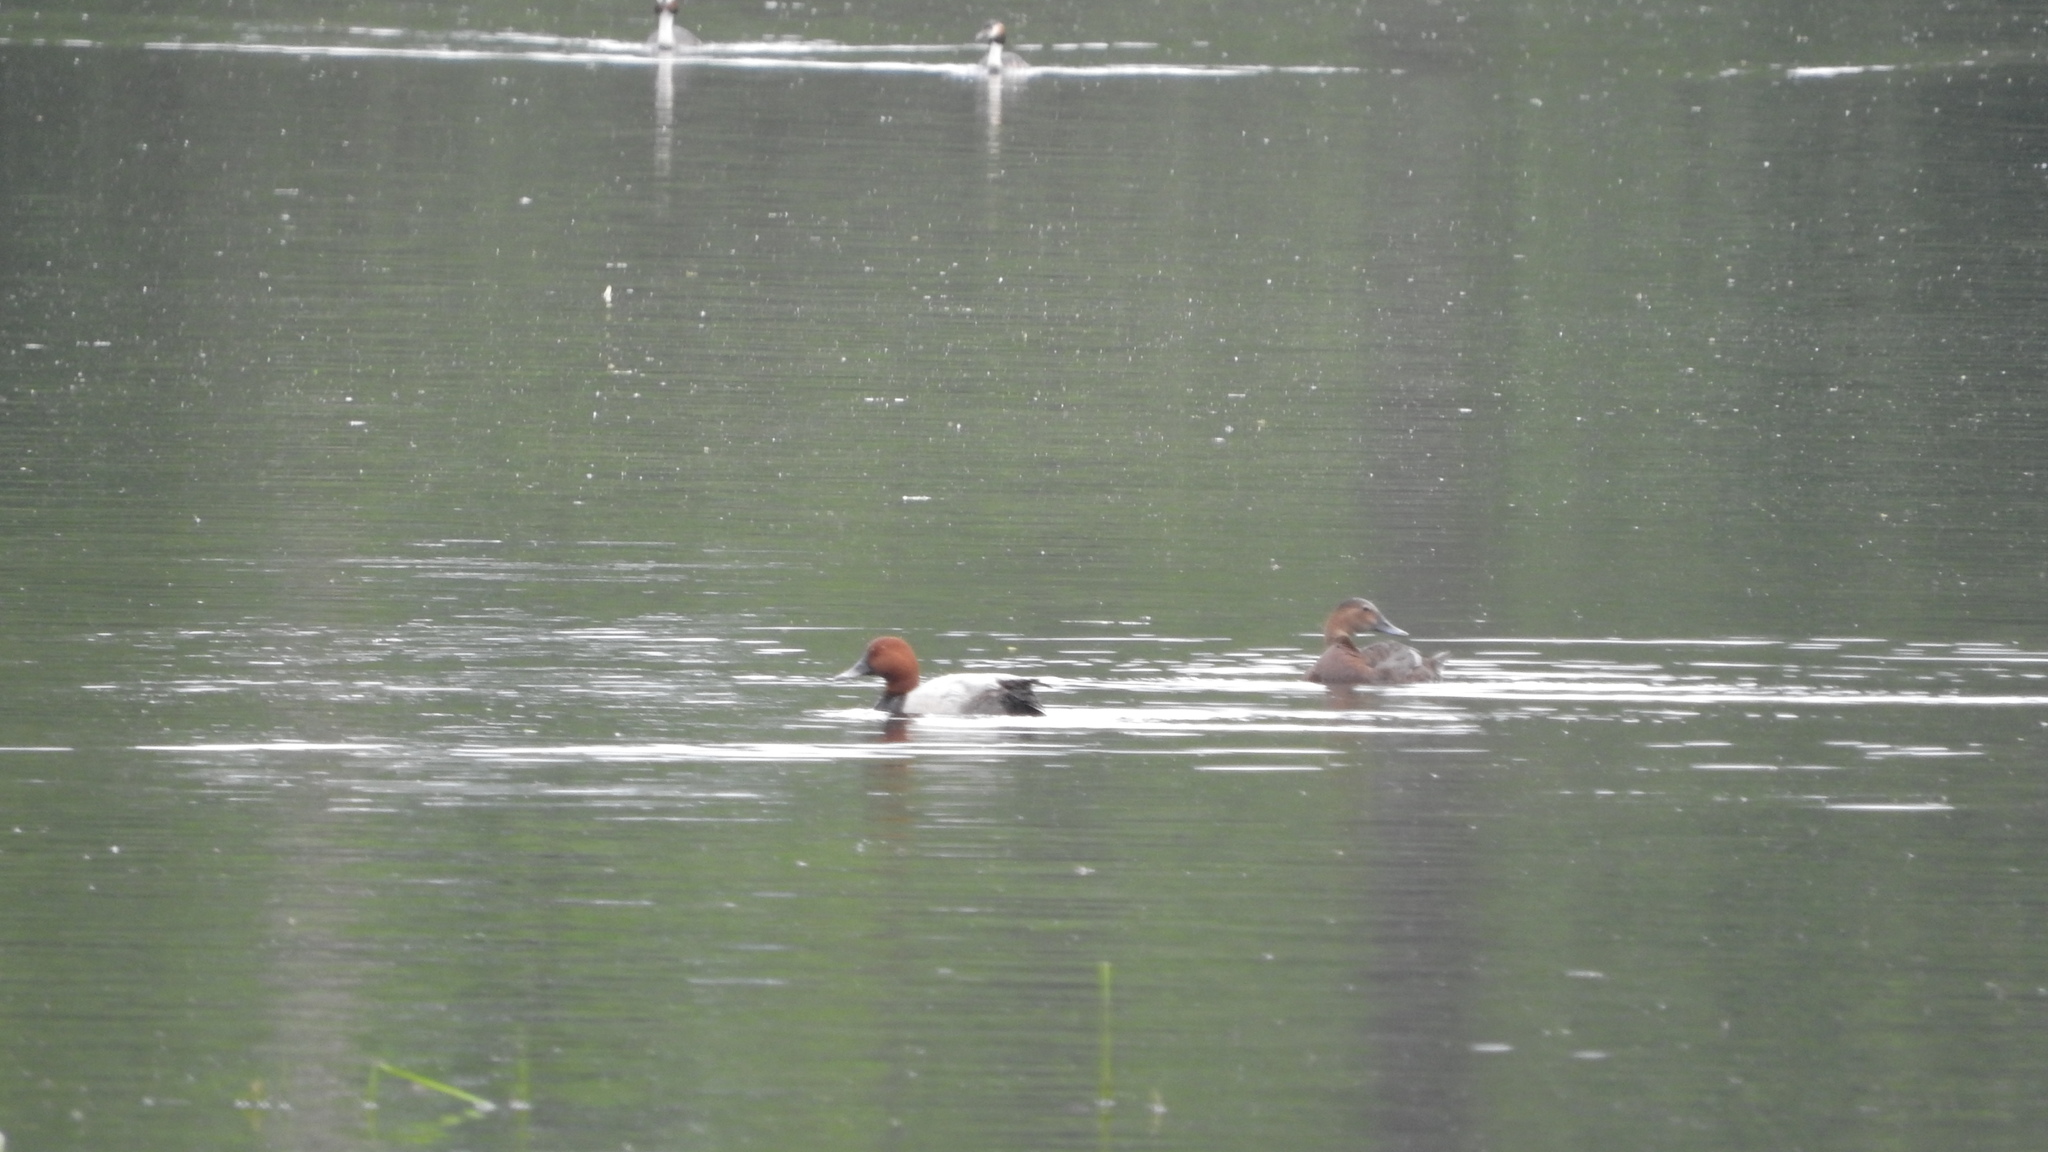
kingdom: Animalia
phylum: Chordata
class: Aves
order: Anseriformes
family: Anatidae
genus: Aythya
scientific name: Aythya ferina
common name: Common pochard
